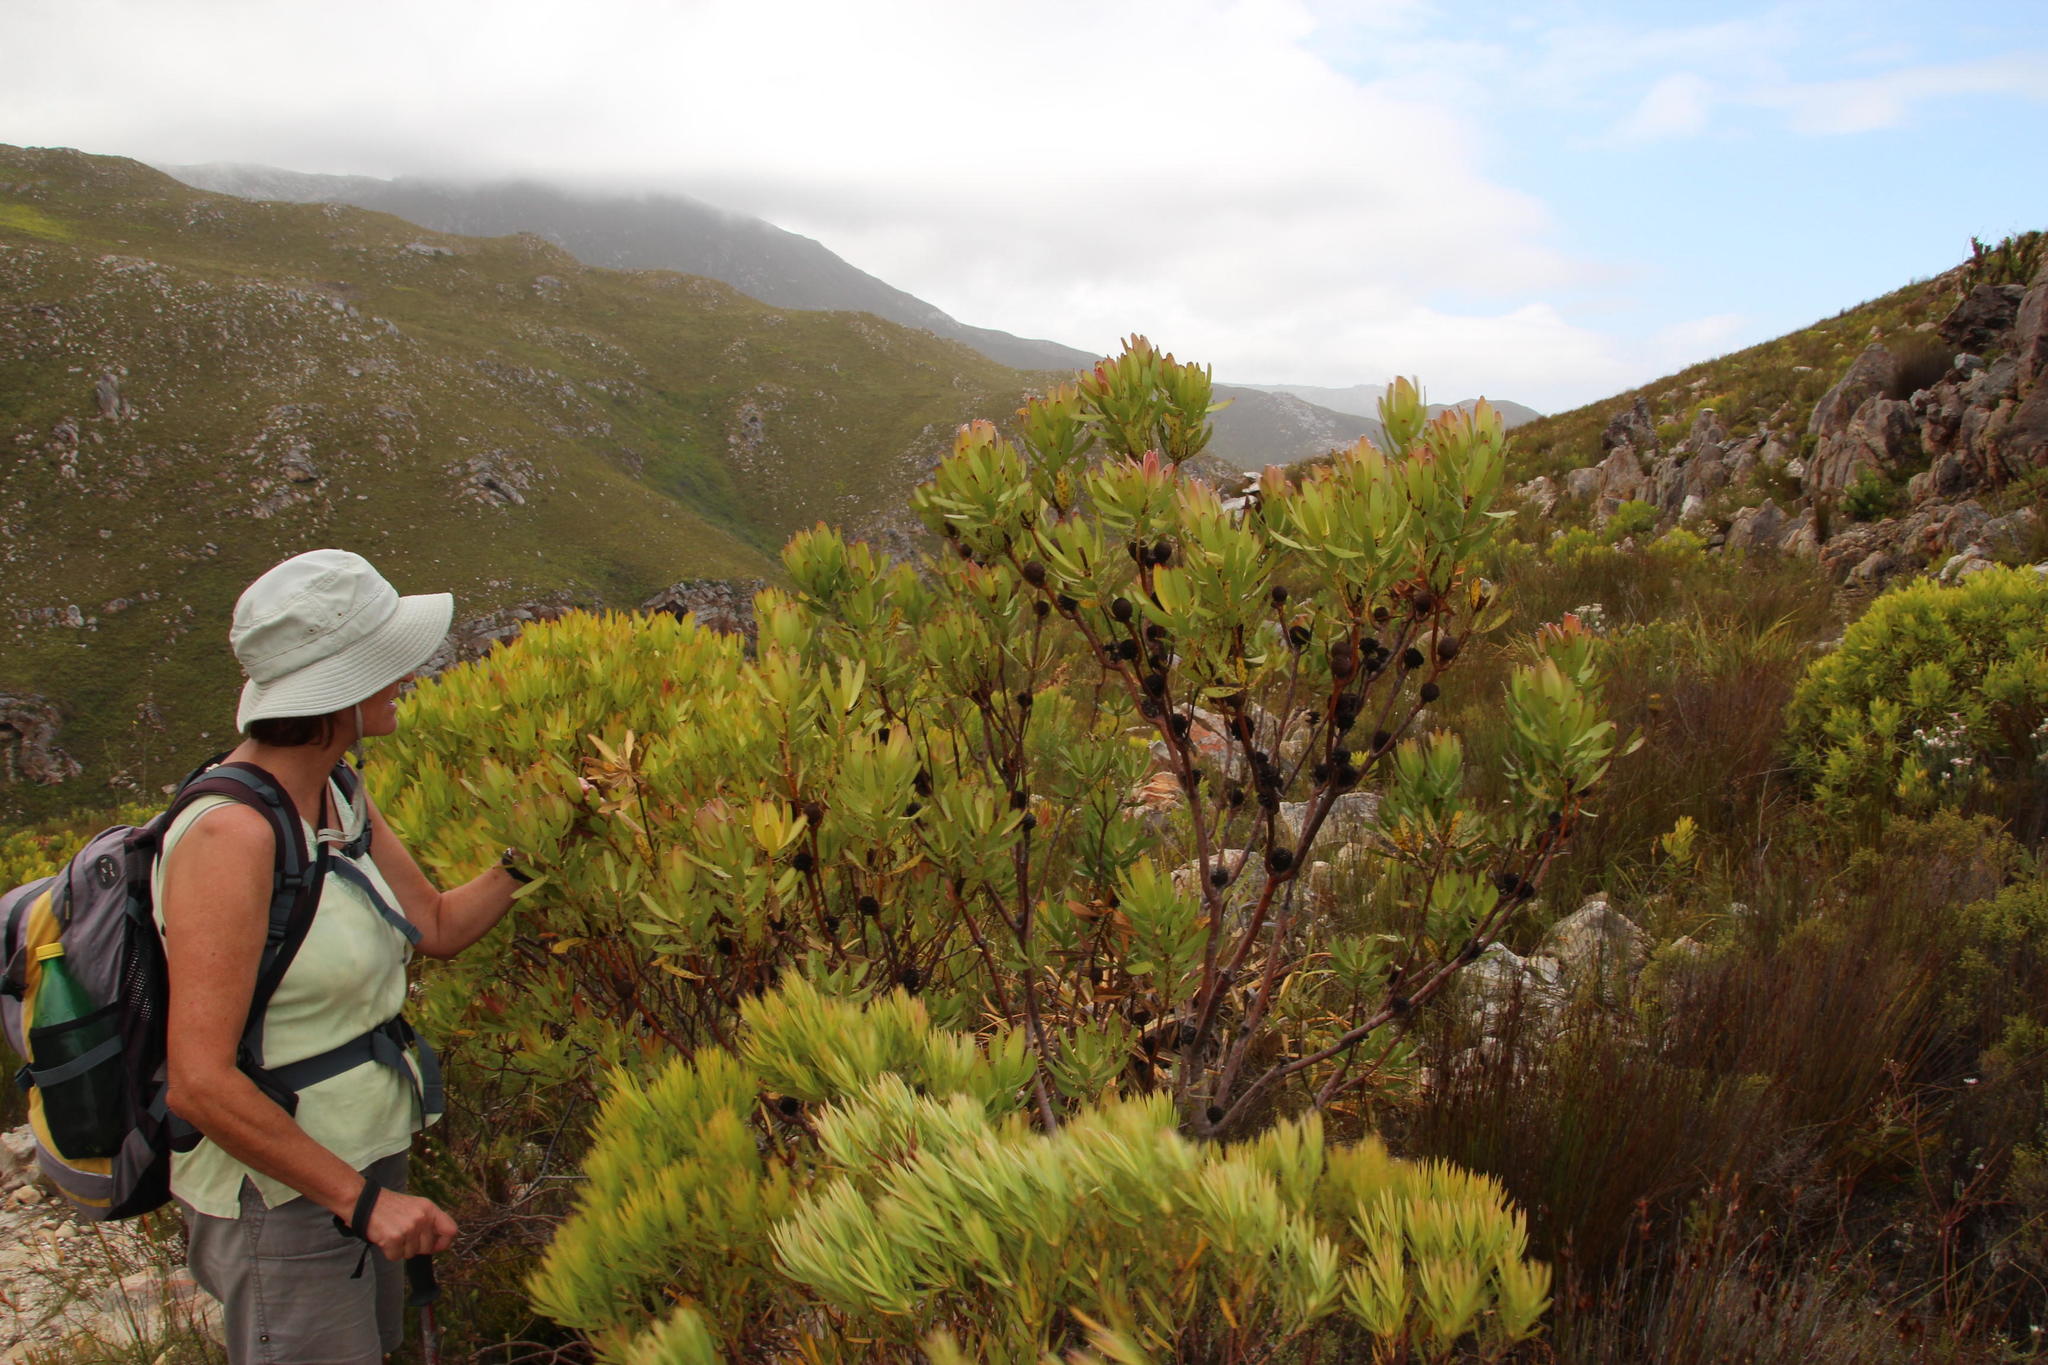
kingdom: Plantae
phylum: Tracheophyta
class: Magnoliopsida
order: Proteales
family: Proteaceae
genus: Leucadendron
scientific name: Leucadendron microcephalum
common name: Oilbract conebush
